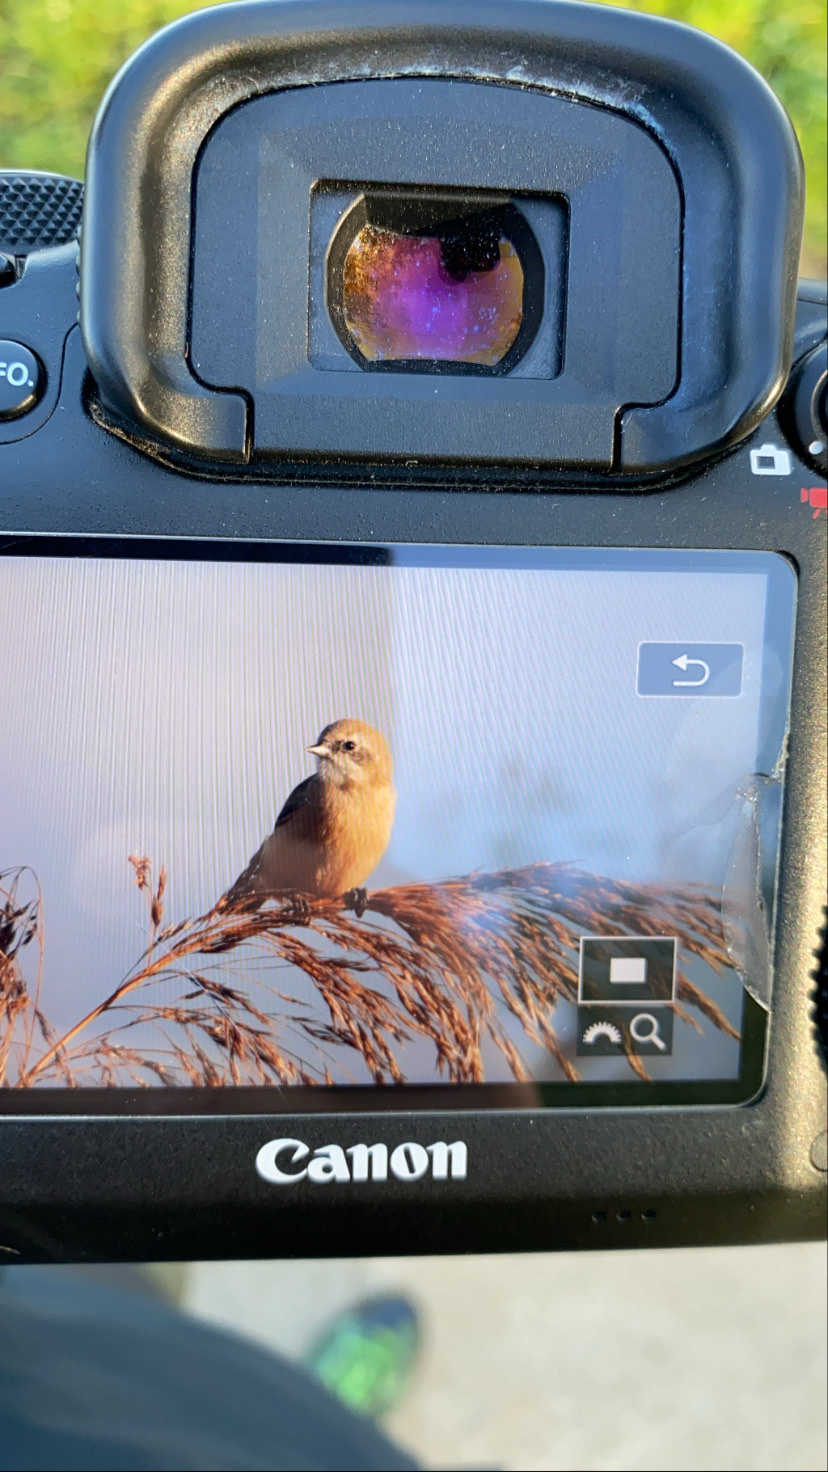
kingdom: Animalia
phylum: Chordata
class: Aves
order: Passeriformes
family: Remizidae
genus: Remiz
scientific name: Remiz pendulinus
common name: Eurasian penduline tit
